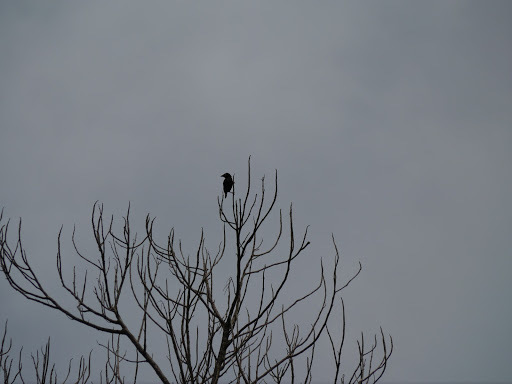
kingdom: Animalia
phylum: Chordata
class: Aves
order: Passeriformes
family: Ploceidae
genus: Ploceus
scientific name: Ploceus nigerrimus
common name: Vieillot's black weaver
